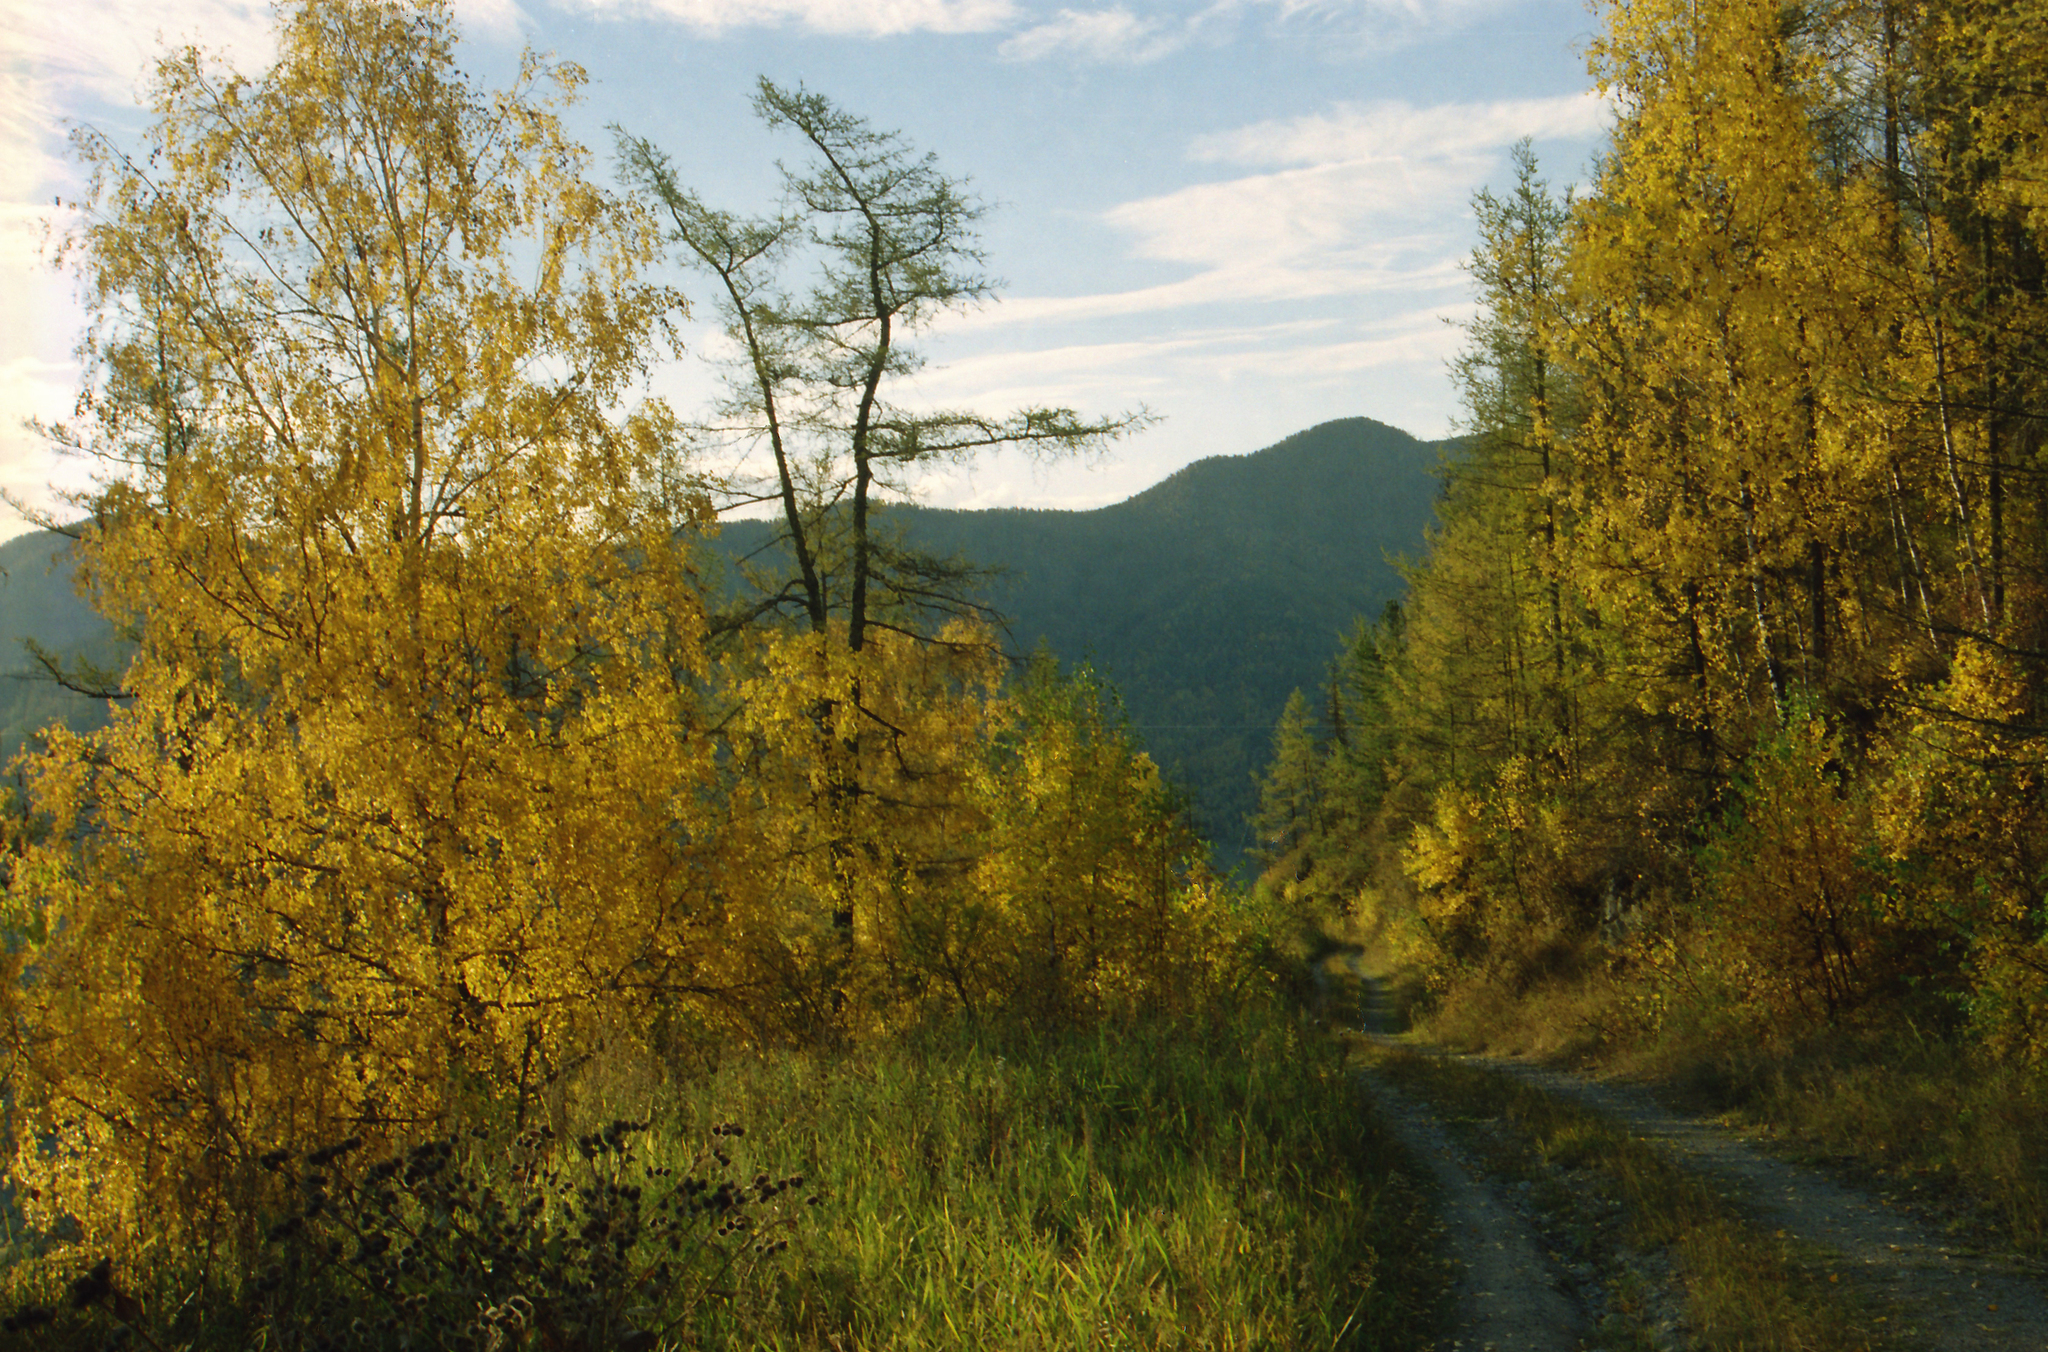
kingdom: Plantae
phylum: Tracheophyta
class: Pinopsida
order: Pinales
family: Pinaceae
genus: Larix
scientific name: Larix sibirica
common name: Siberian larch
